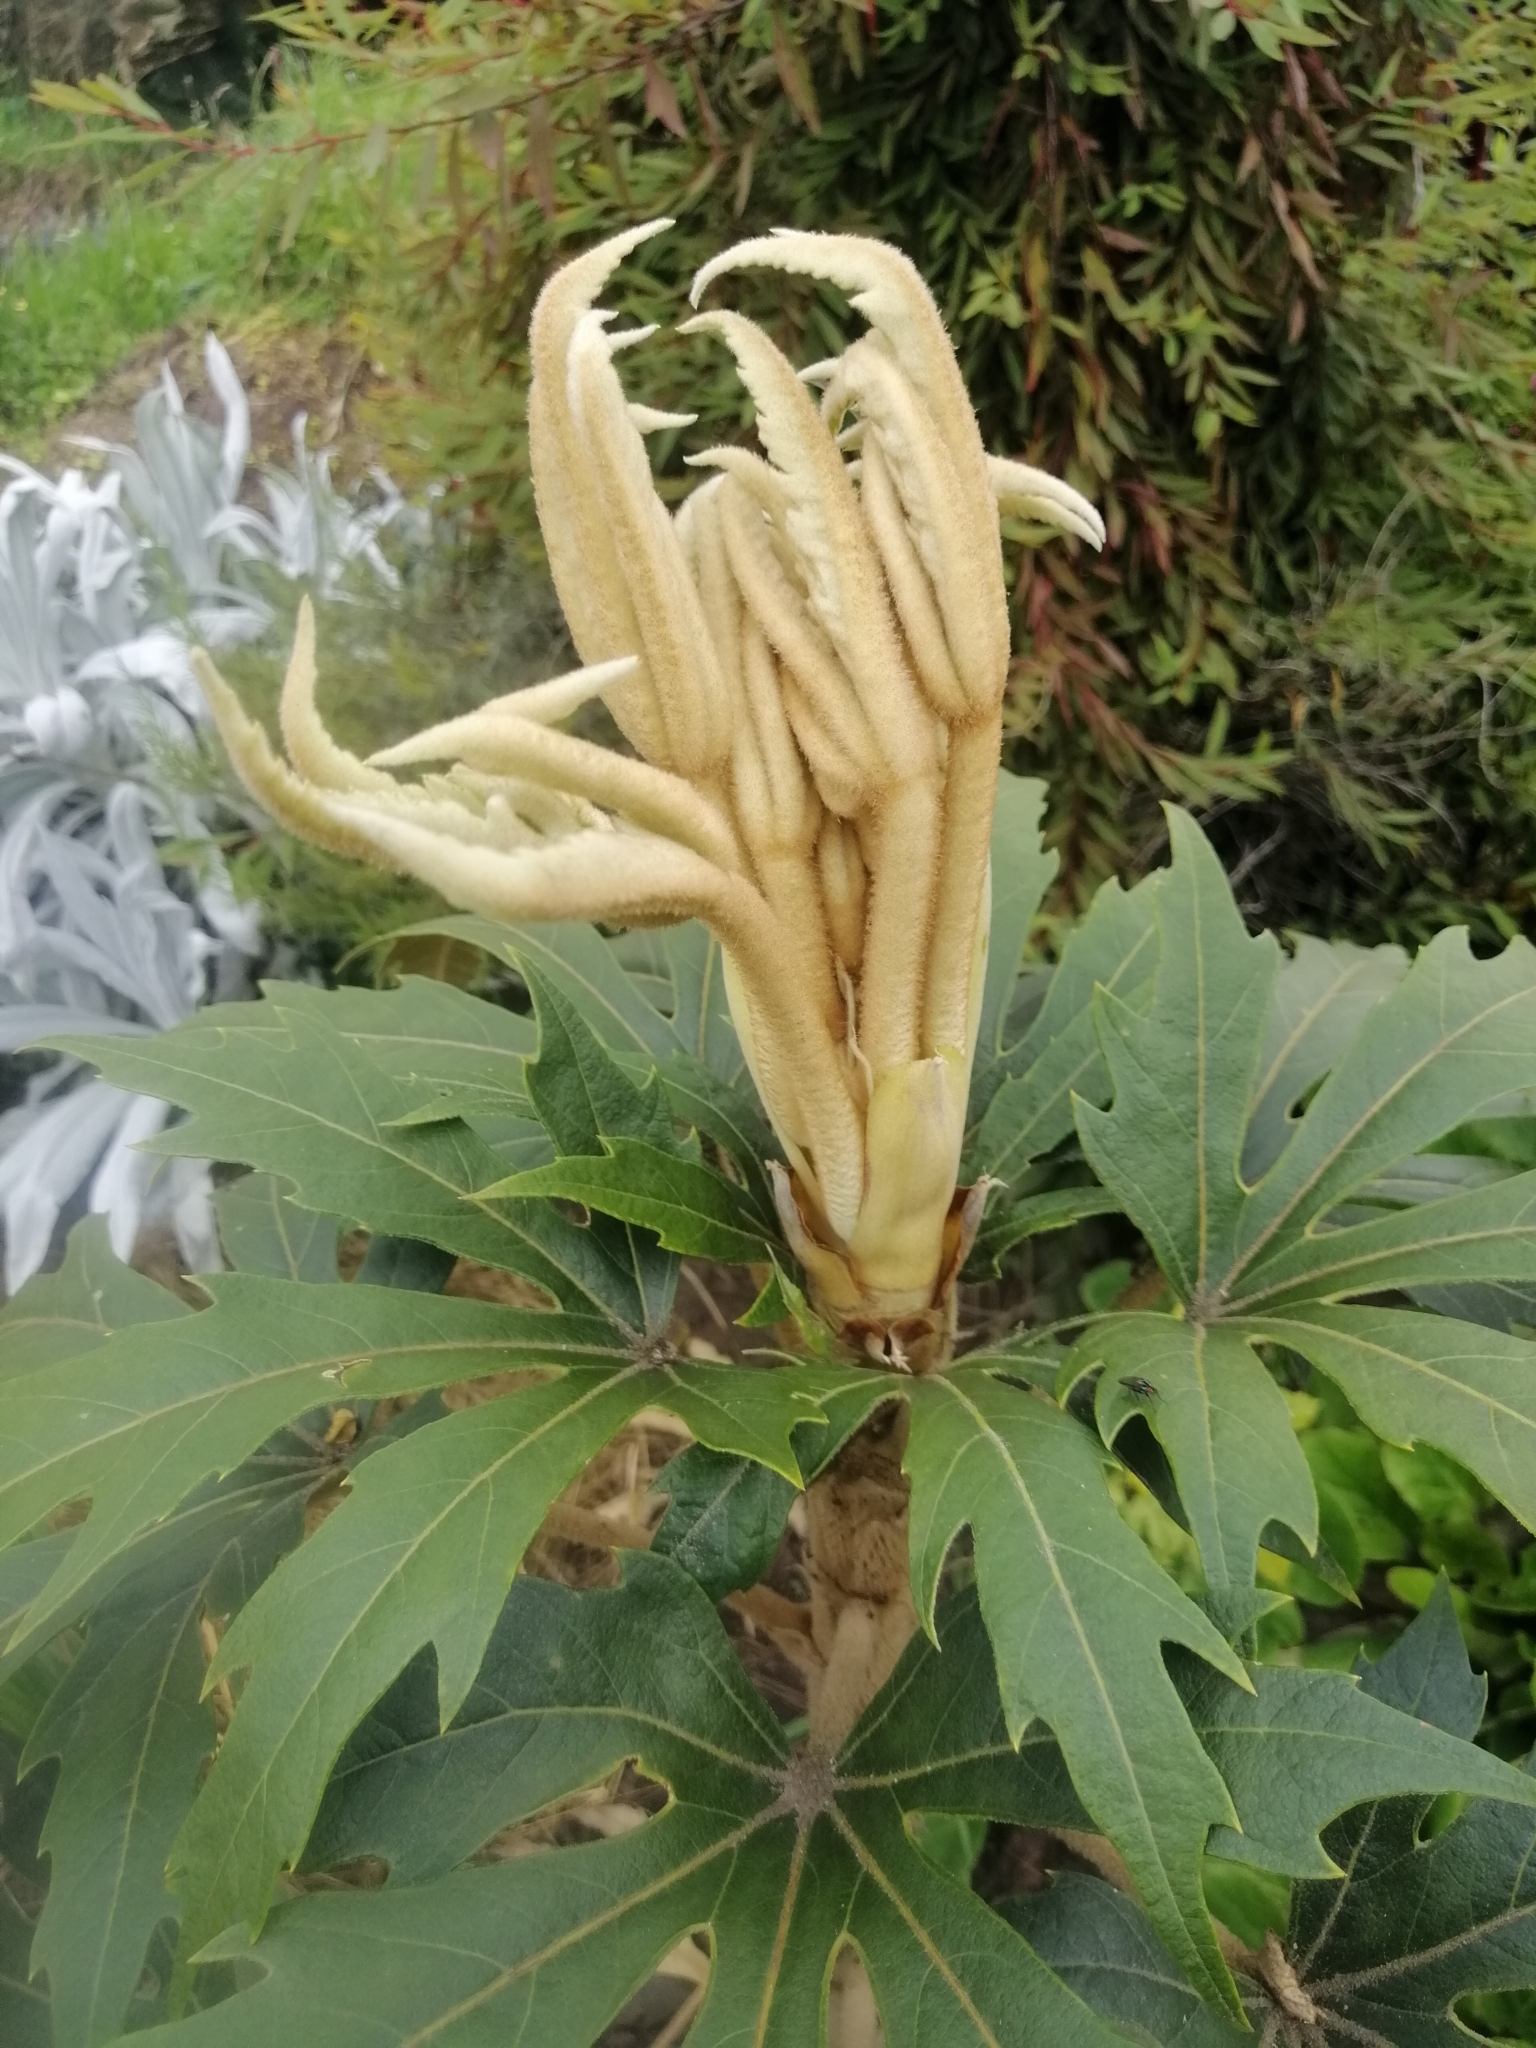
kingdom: Plantae
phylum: Tracheophyta
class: Magnoliopsida
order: Apiales
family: Araliaceae
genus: Oreopanax
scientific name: Oreopanax ecuadorensis
